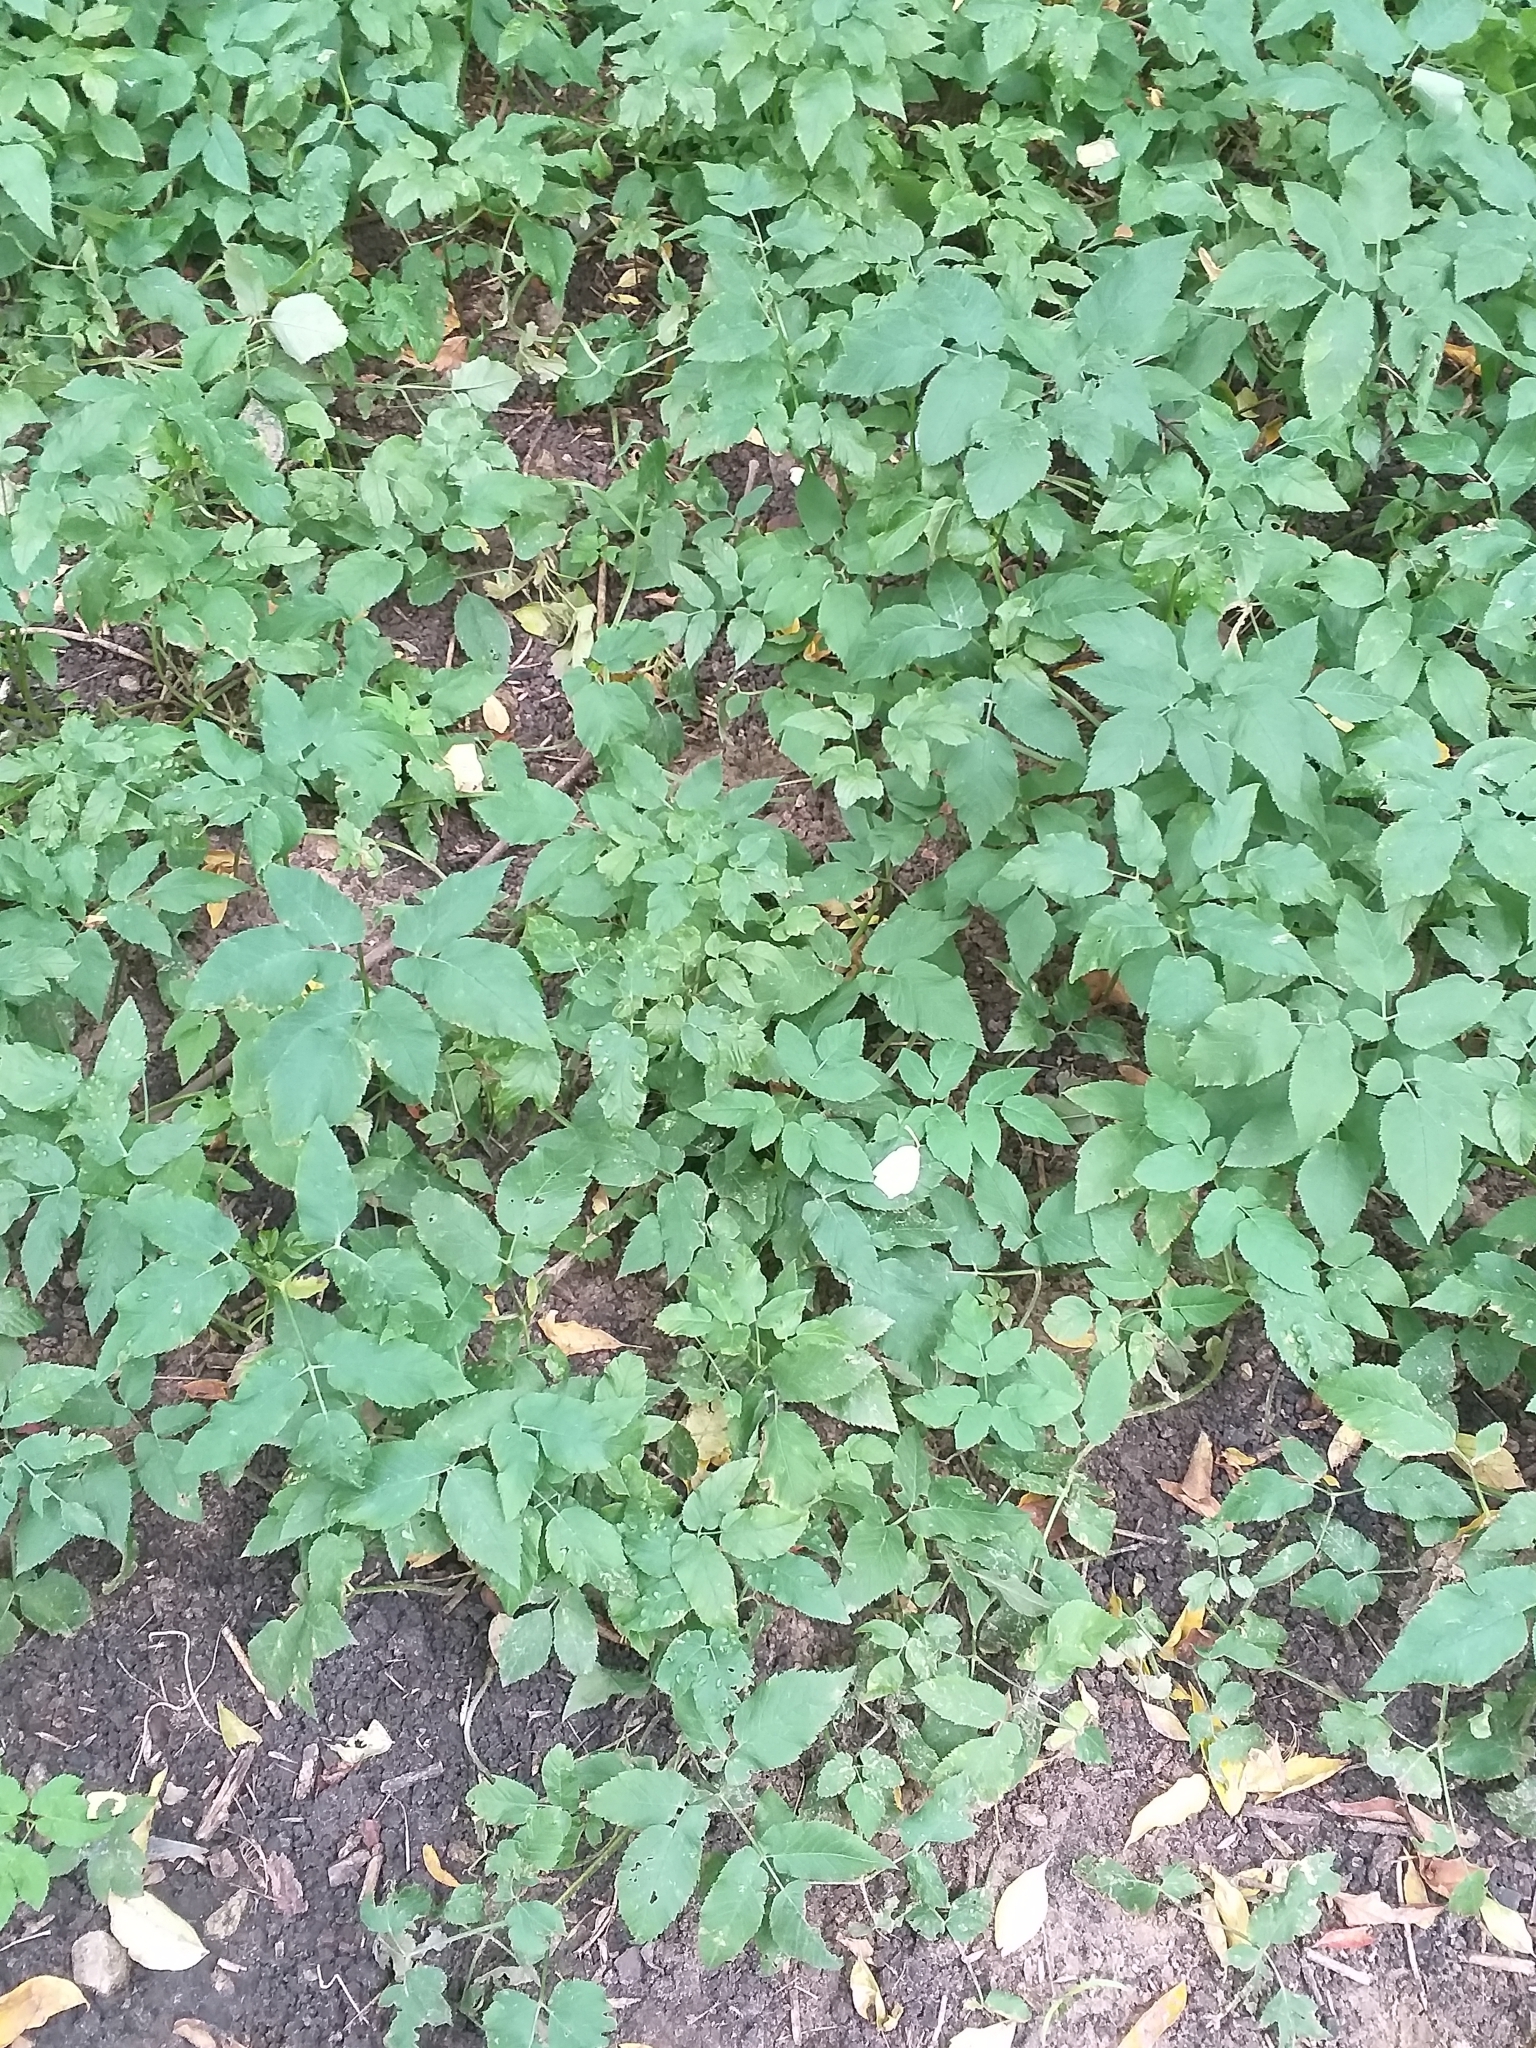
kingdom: Plantae
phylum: Tracheophyta
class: Magnoliopsida
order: Apiales
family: Apiaceae
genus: Aegopodium
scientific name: Aegopodium podagraria
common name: Ground-elder
